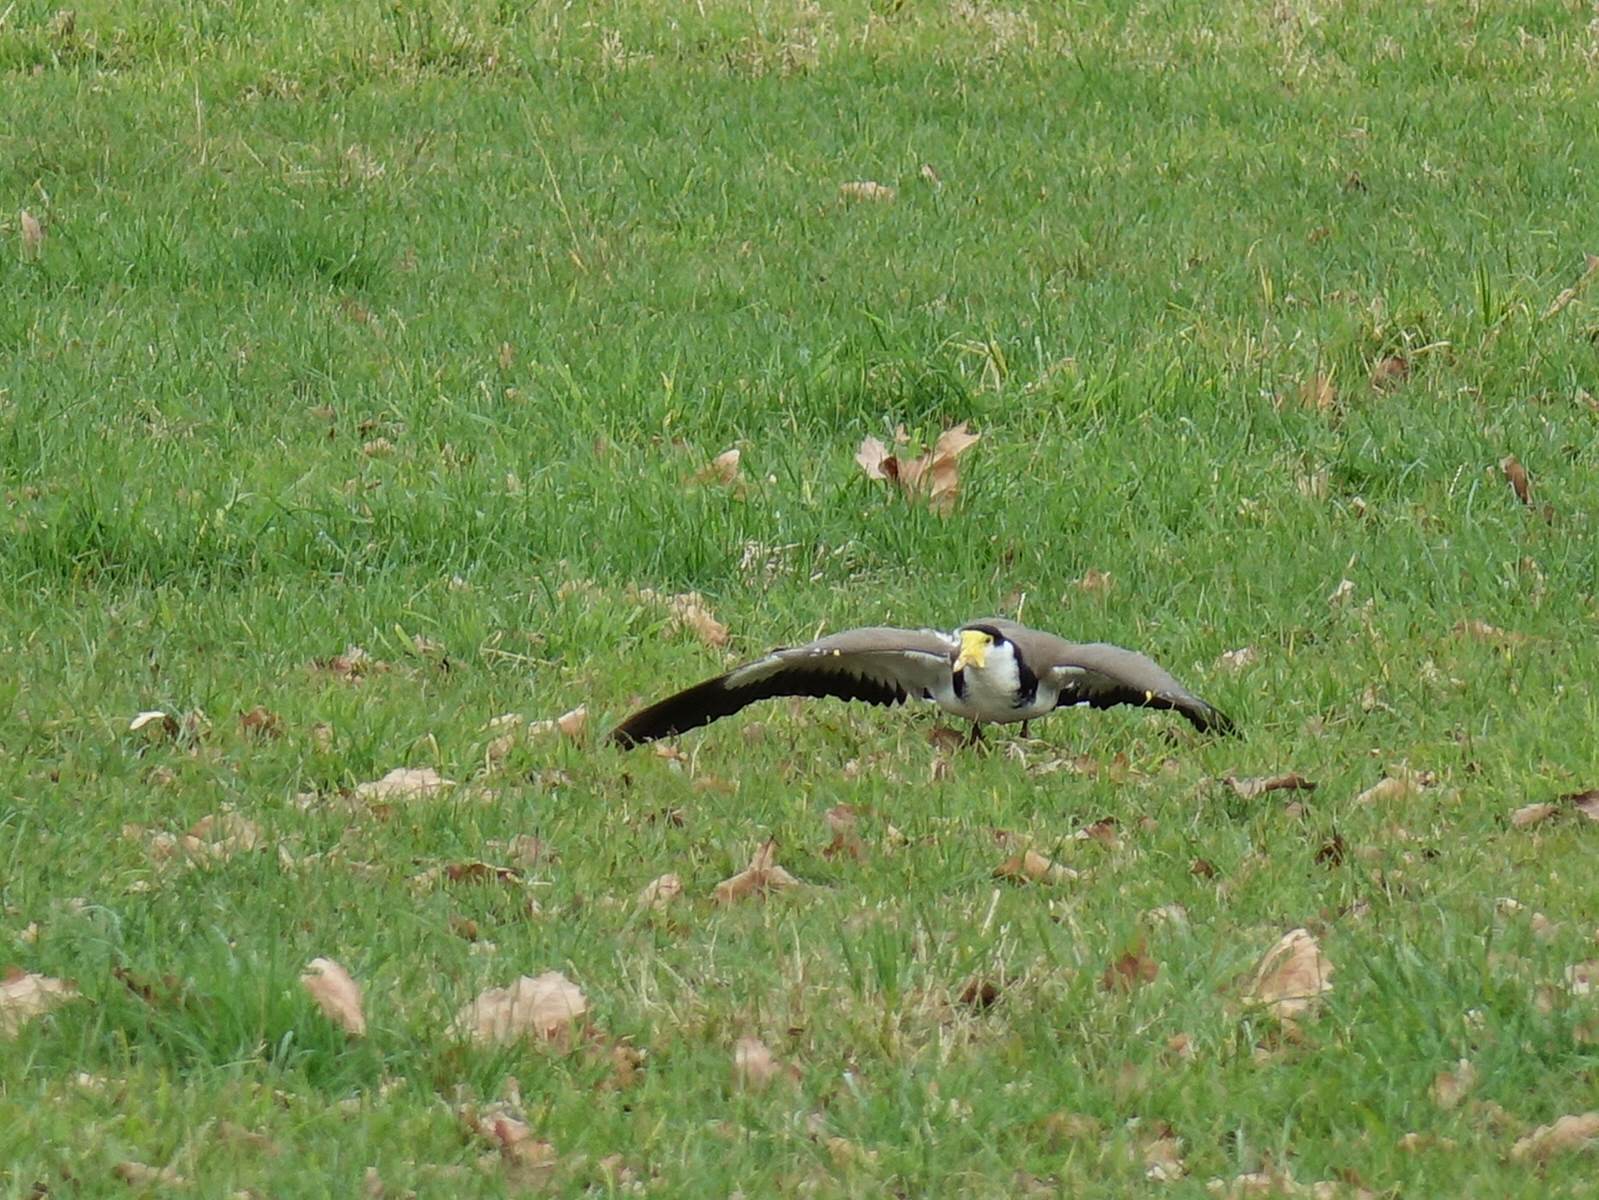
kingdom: Animalia
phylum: Chordata
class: Aves
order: Charadriiformes
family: Charadriidae
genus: Vanellus
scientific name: Vanellus miles
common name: Masked lapwing
